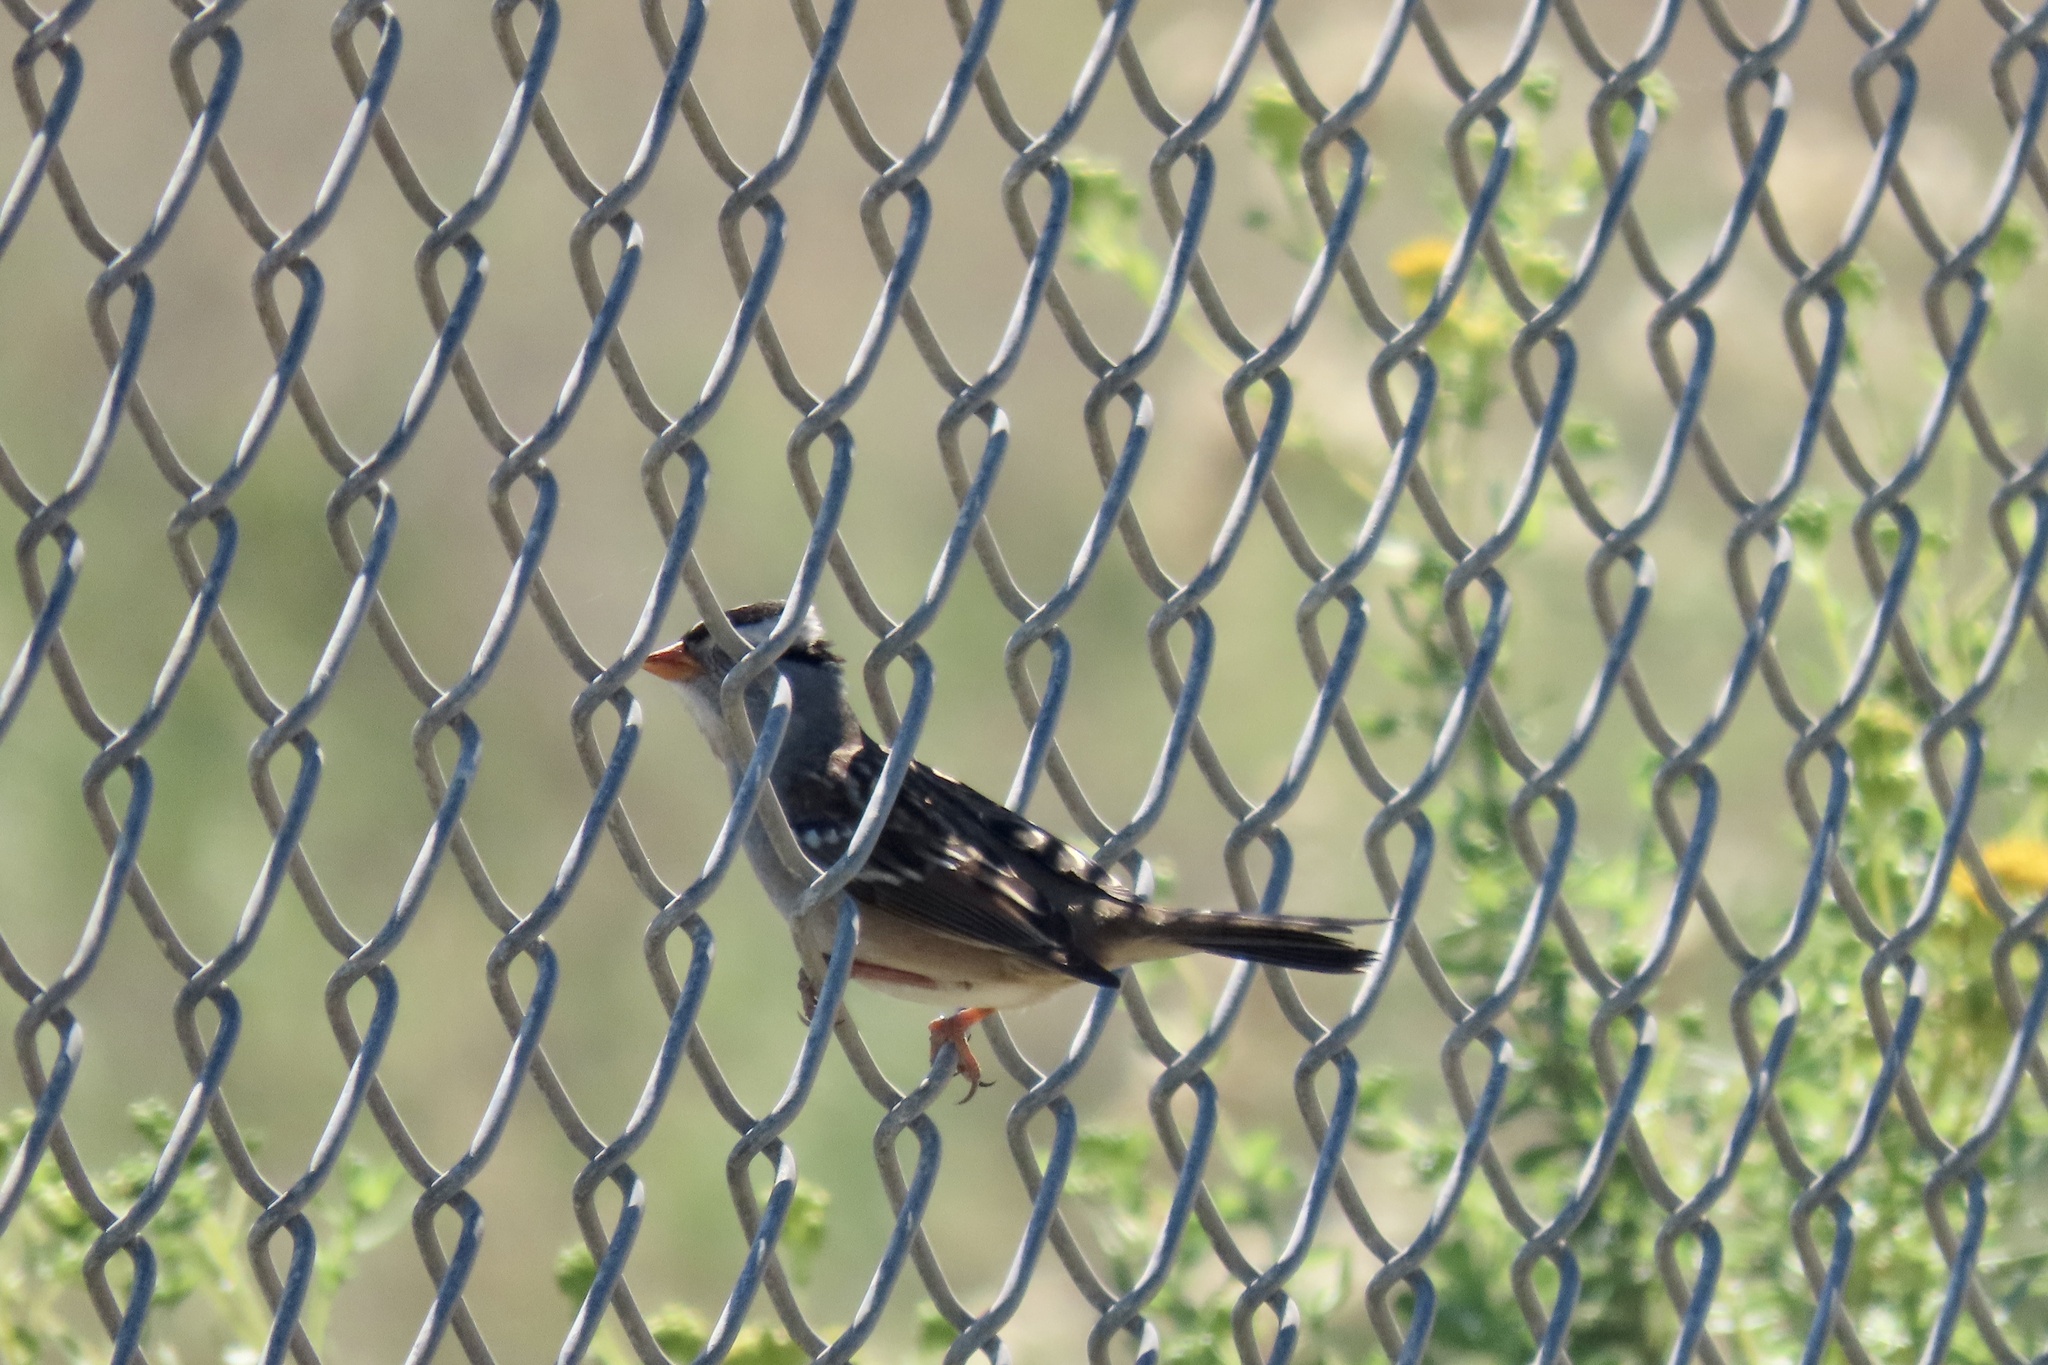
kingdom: Animalia
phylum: Chordata
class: Aves
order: Passeriformes
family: Passerellidae
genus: Zonotrichia
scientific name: Zonotrichia leucophrys
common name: White-crowned sparrow
